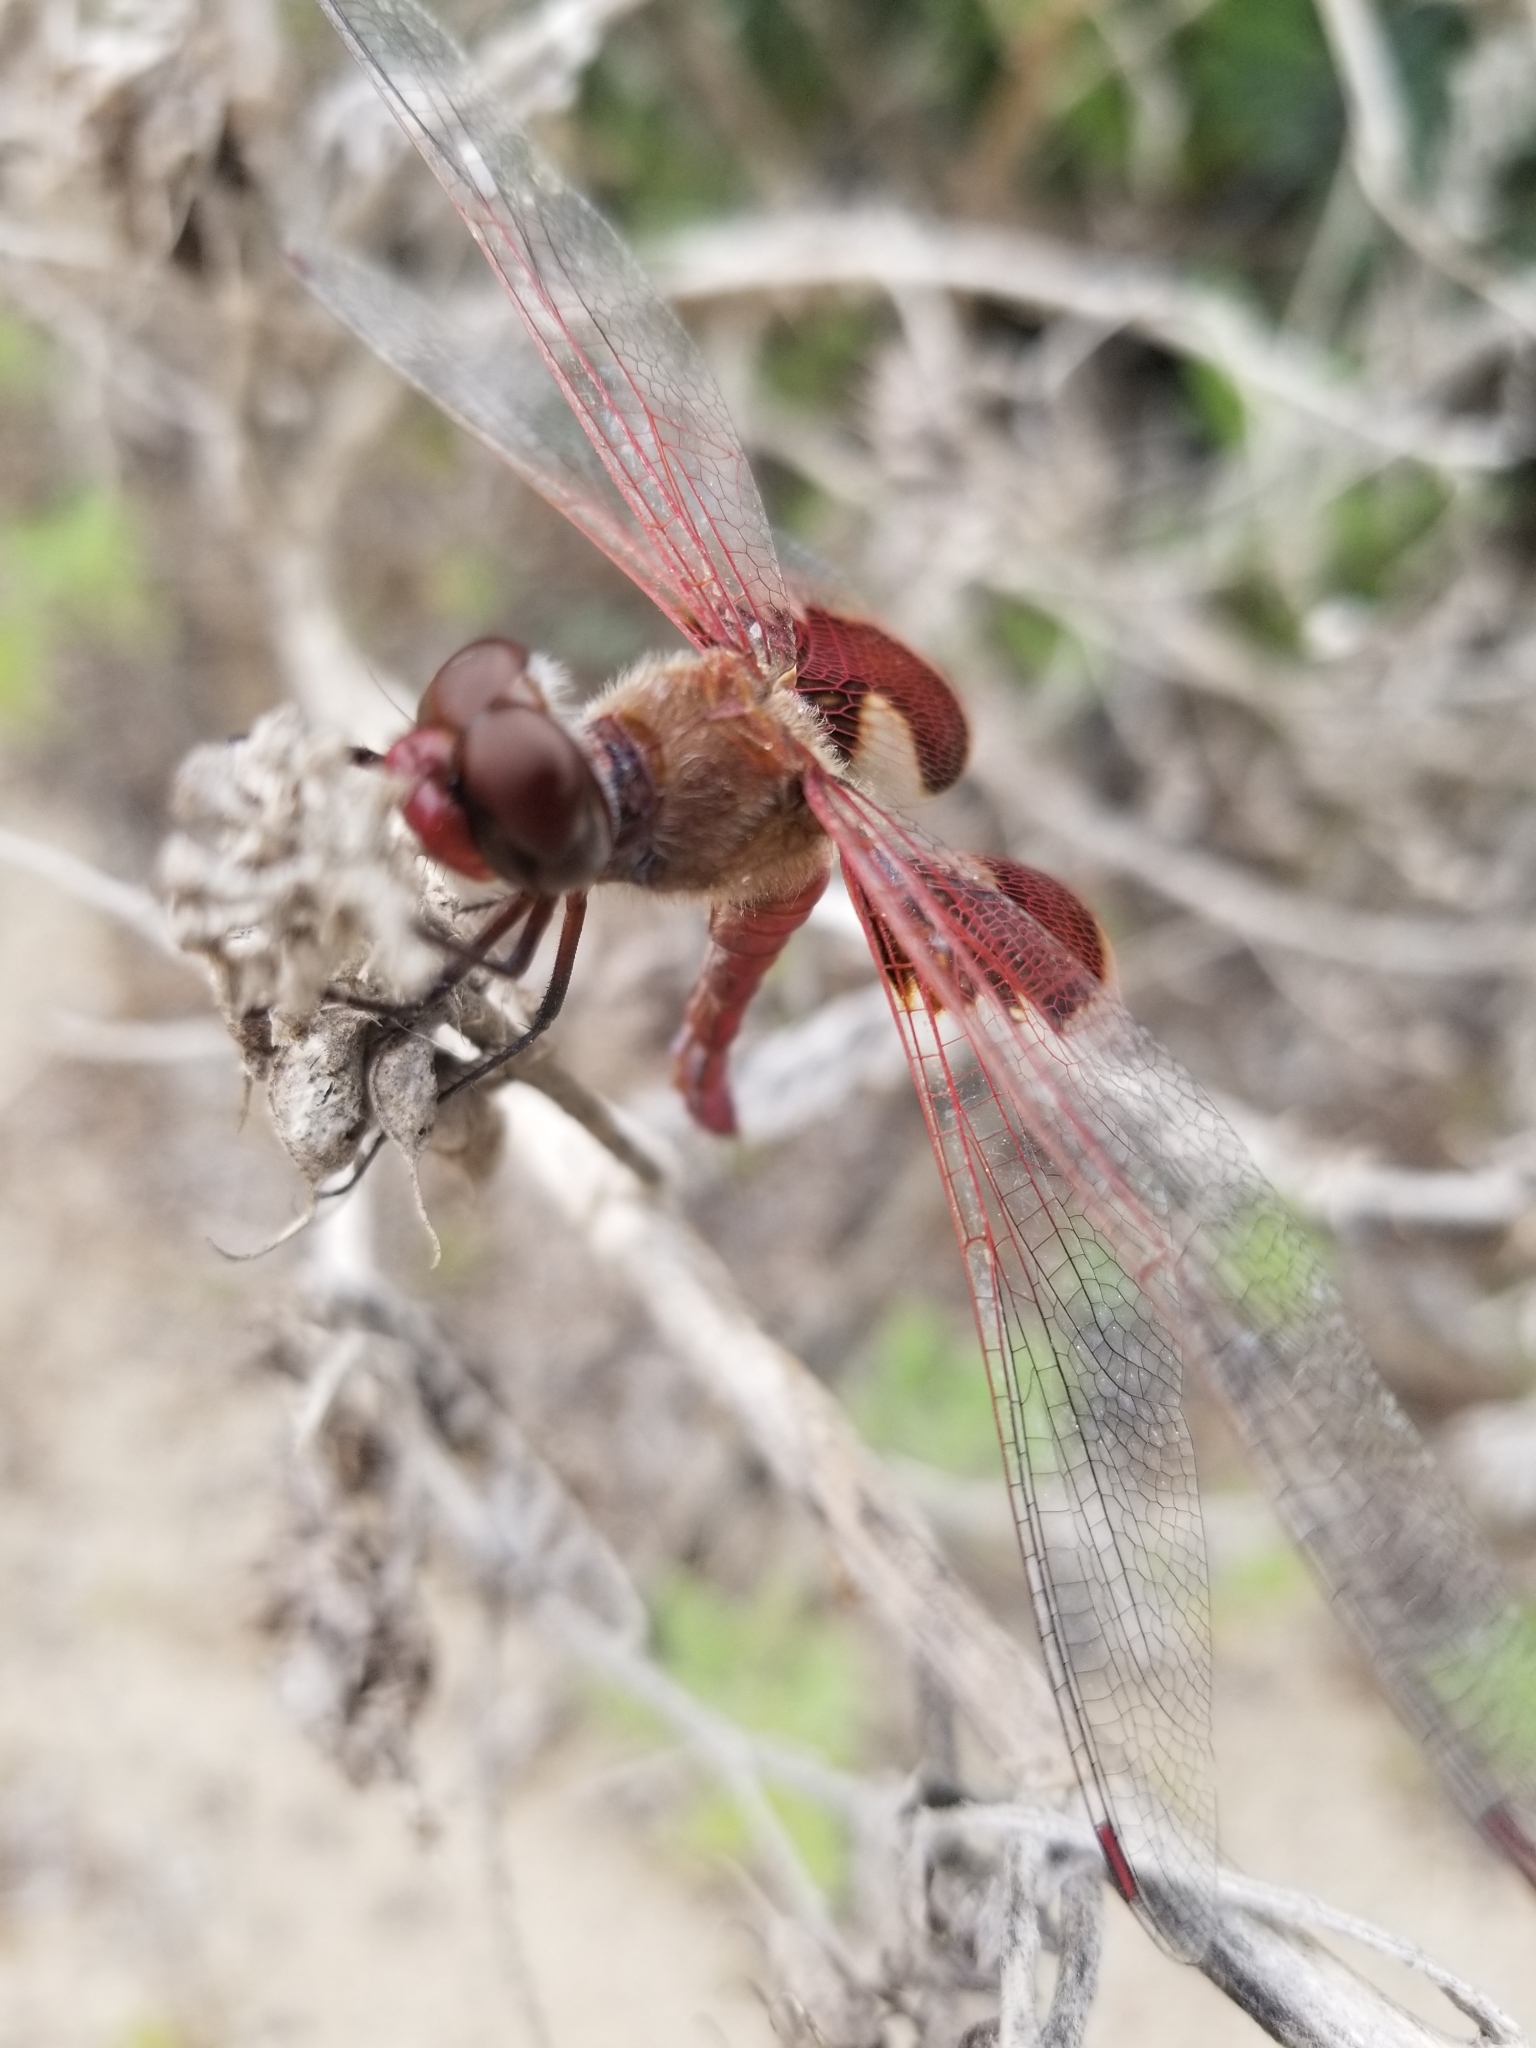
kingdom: Animalia
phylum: Arthropoda
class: Insecta
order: Odonata
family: Libellulidae
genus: Tramea
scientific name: Tramea onusta
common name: Red saddlebags
